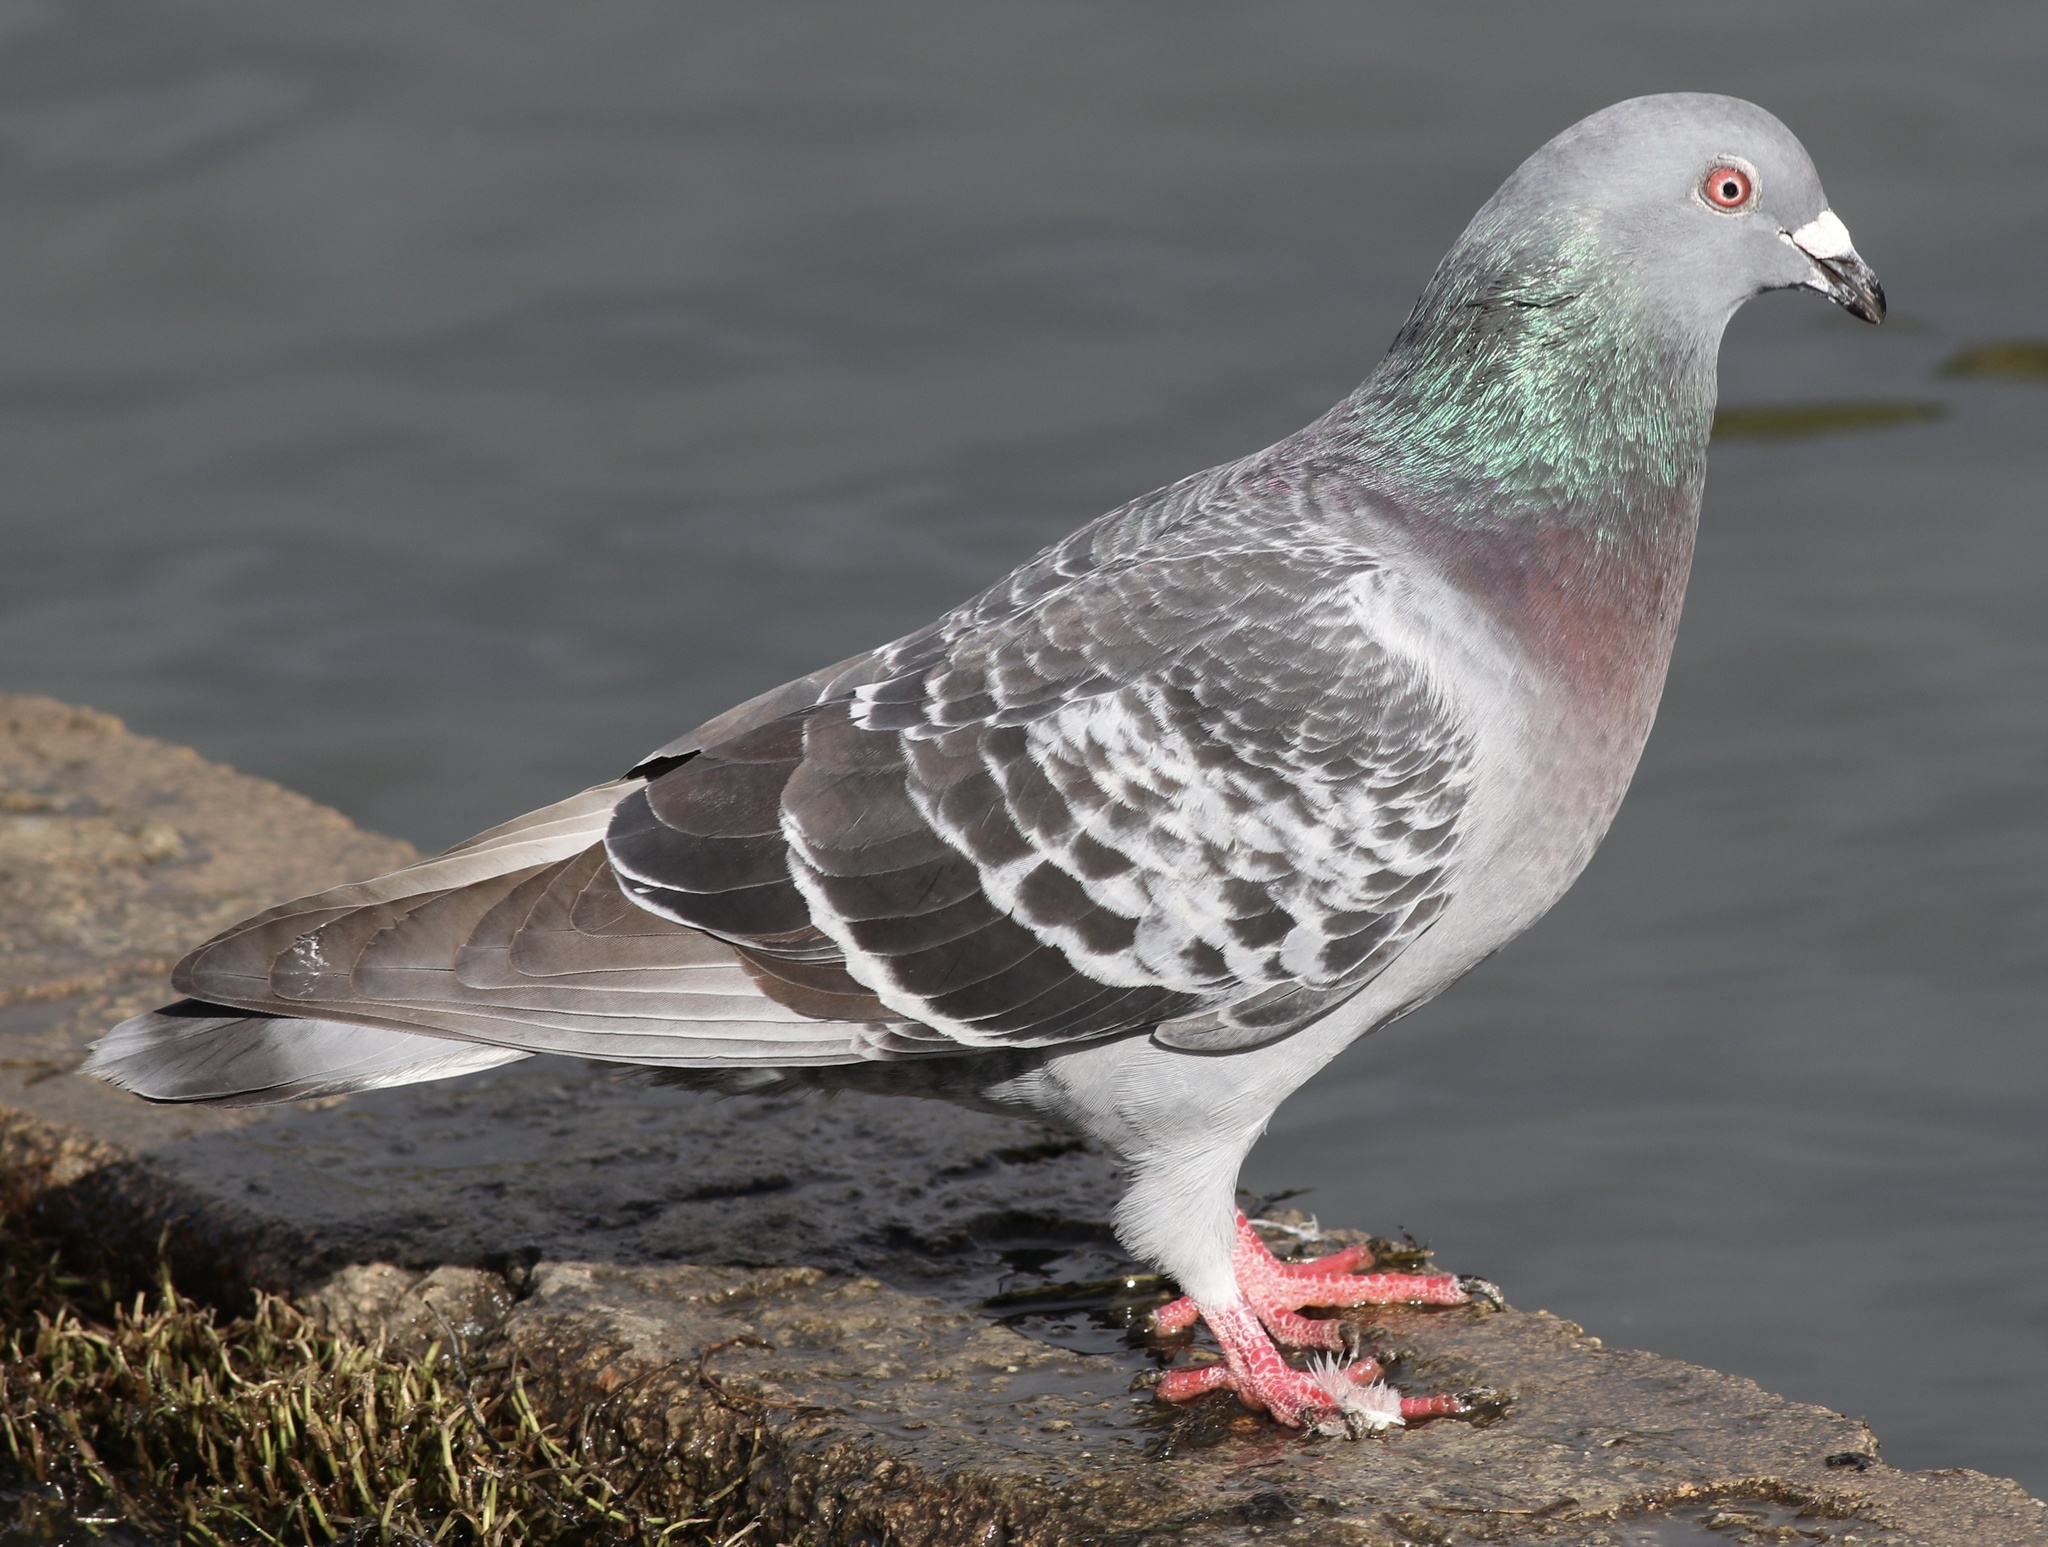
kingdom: Animalia
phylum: Chordata
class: Aves
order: Columbiformes
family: Columbidae
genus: Columba
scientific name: Columba livia
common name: Rock pigeon
